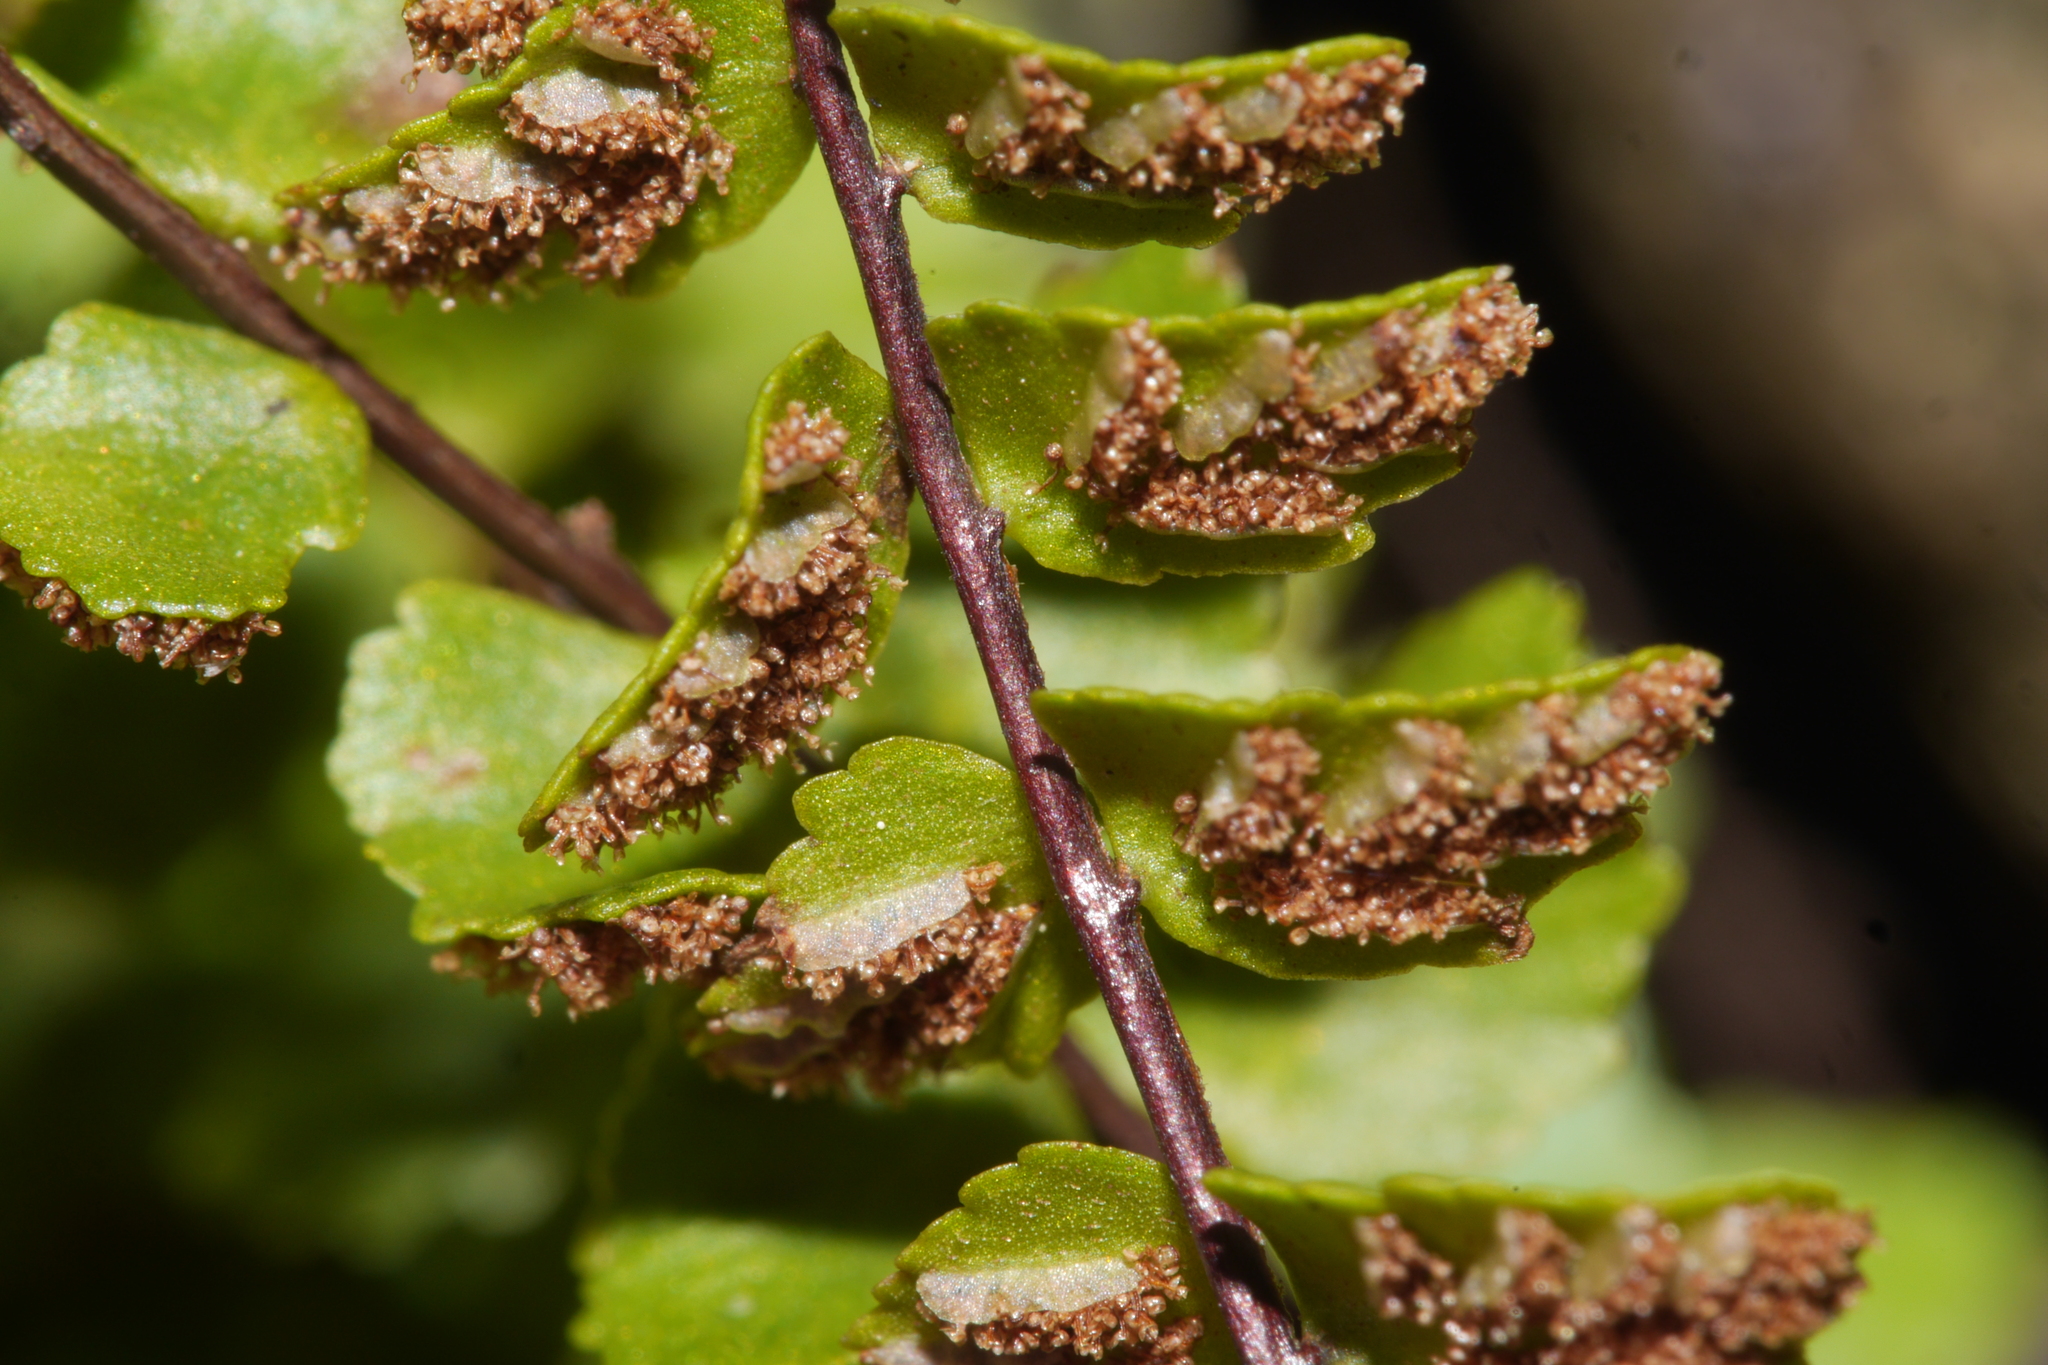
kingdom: Plantae
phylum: Tracheophyta
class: Polypodiopsida
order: Polypodiales
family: Aspleniaceae
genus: Asplenium
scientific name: Asplenium trichomanes
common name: Maidenhair spleenwort
